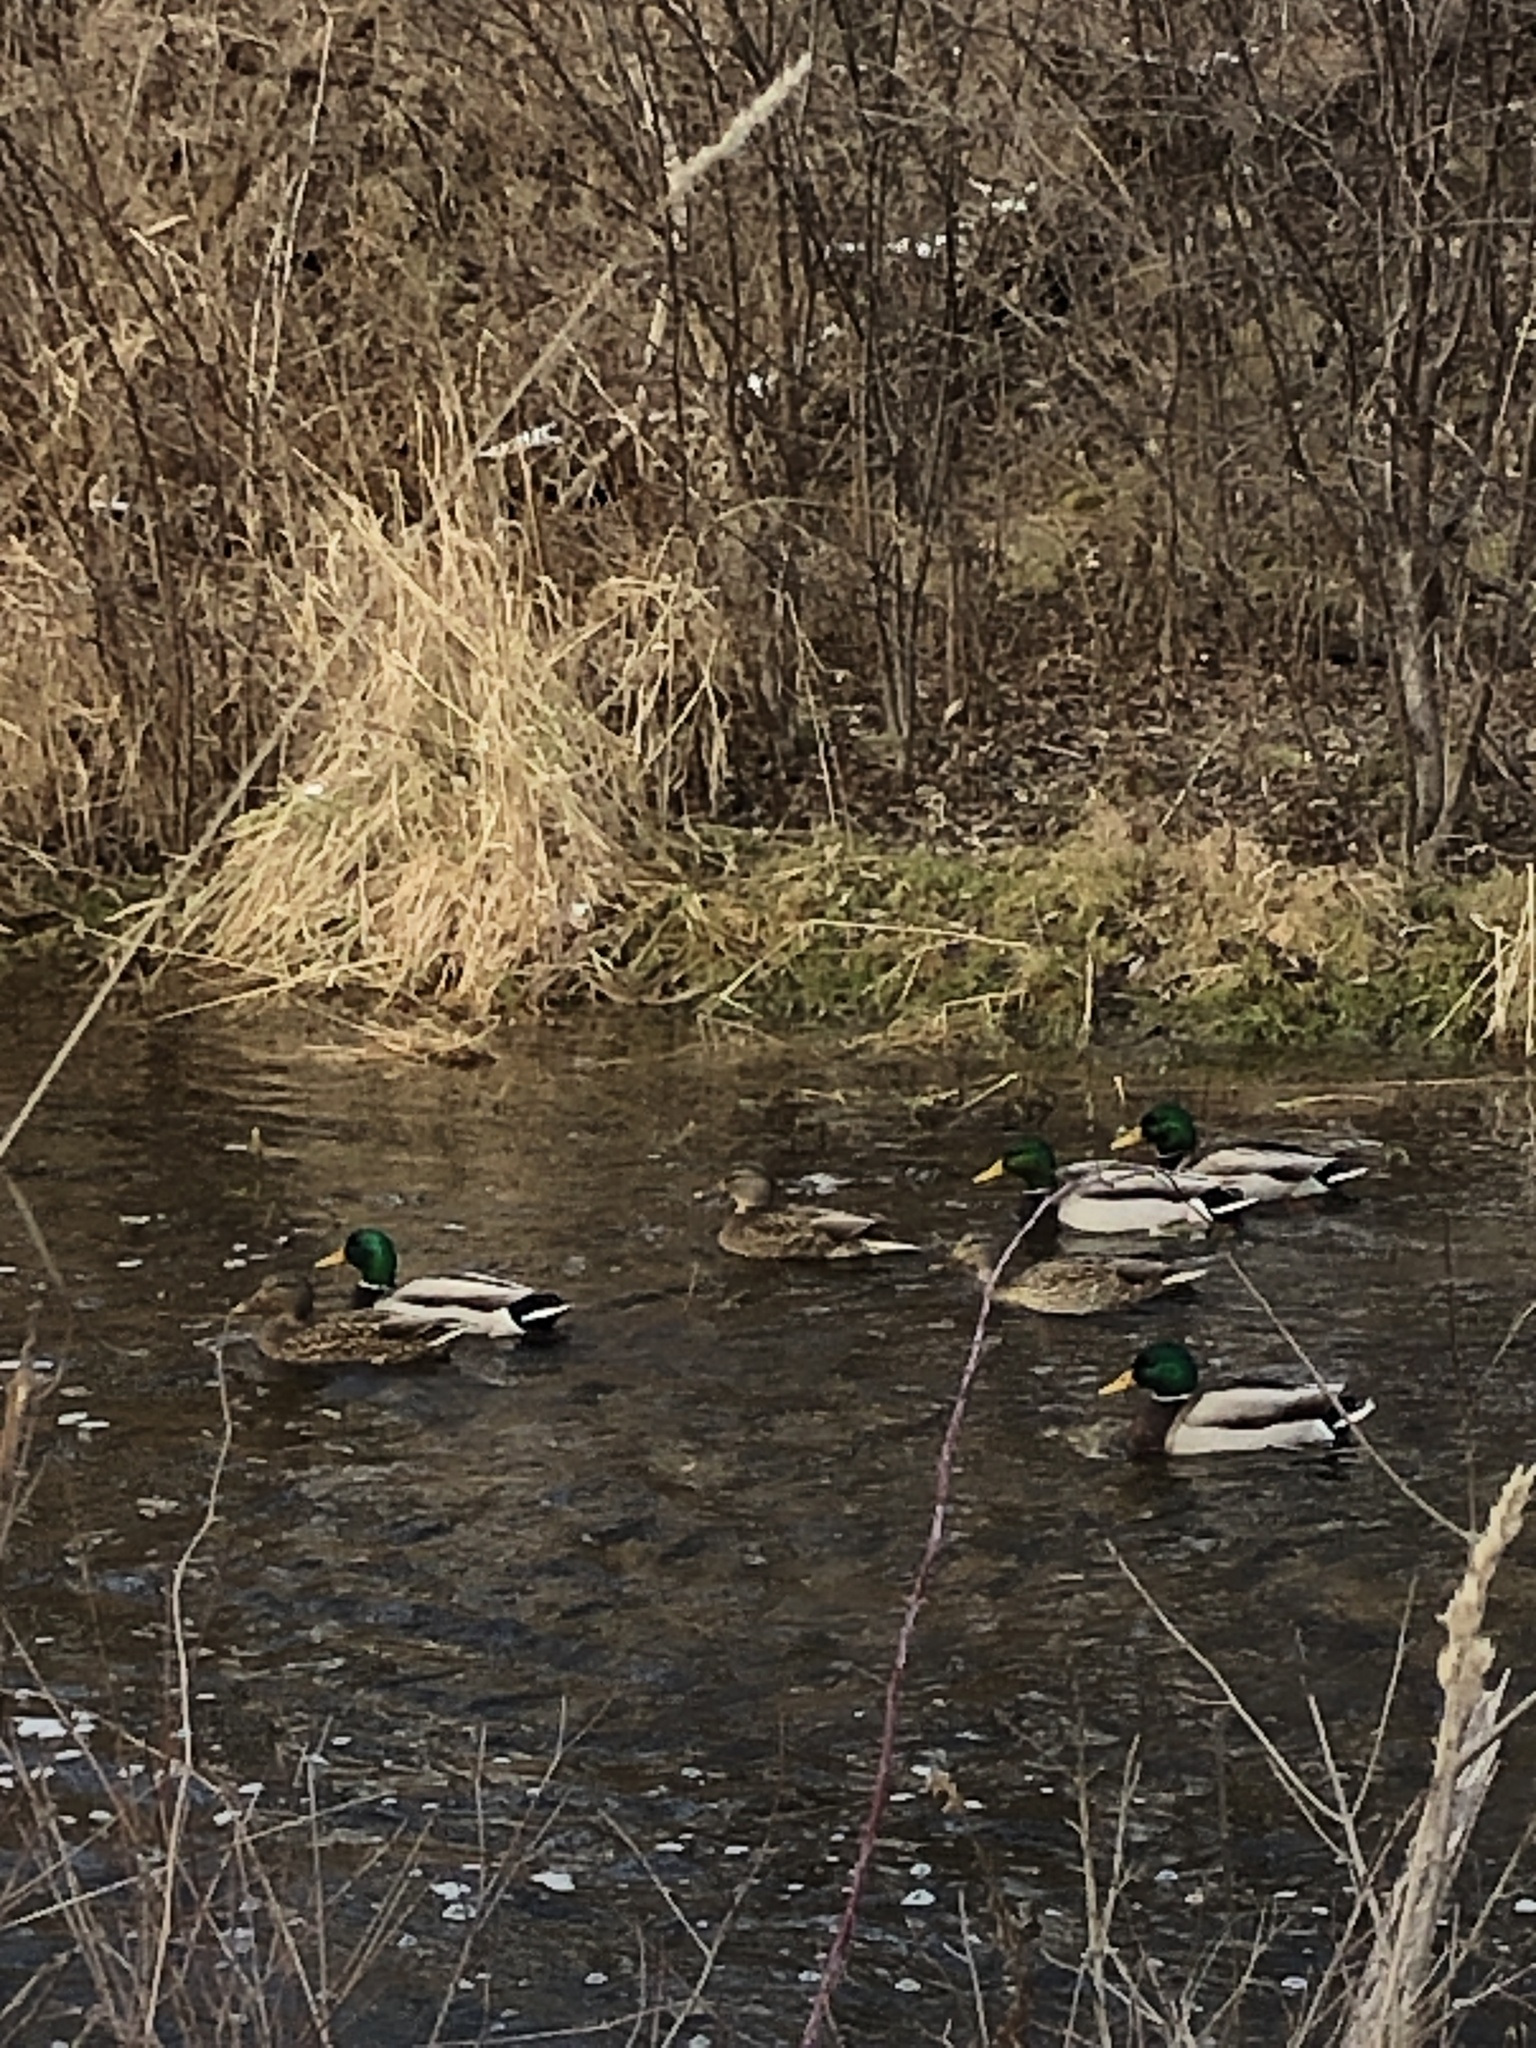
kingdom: Animalia
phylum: Chordata
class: Aves
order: Anseriformes
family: Anatidae
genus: Anas
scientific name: Anas platyrhynchos
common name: Mallard
